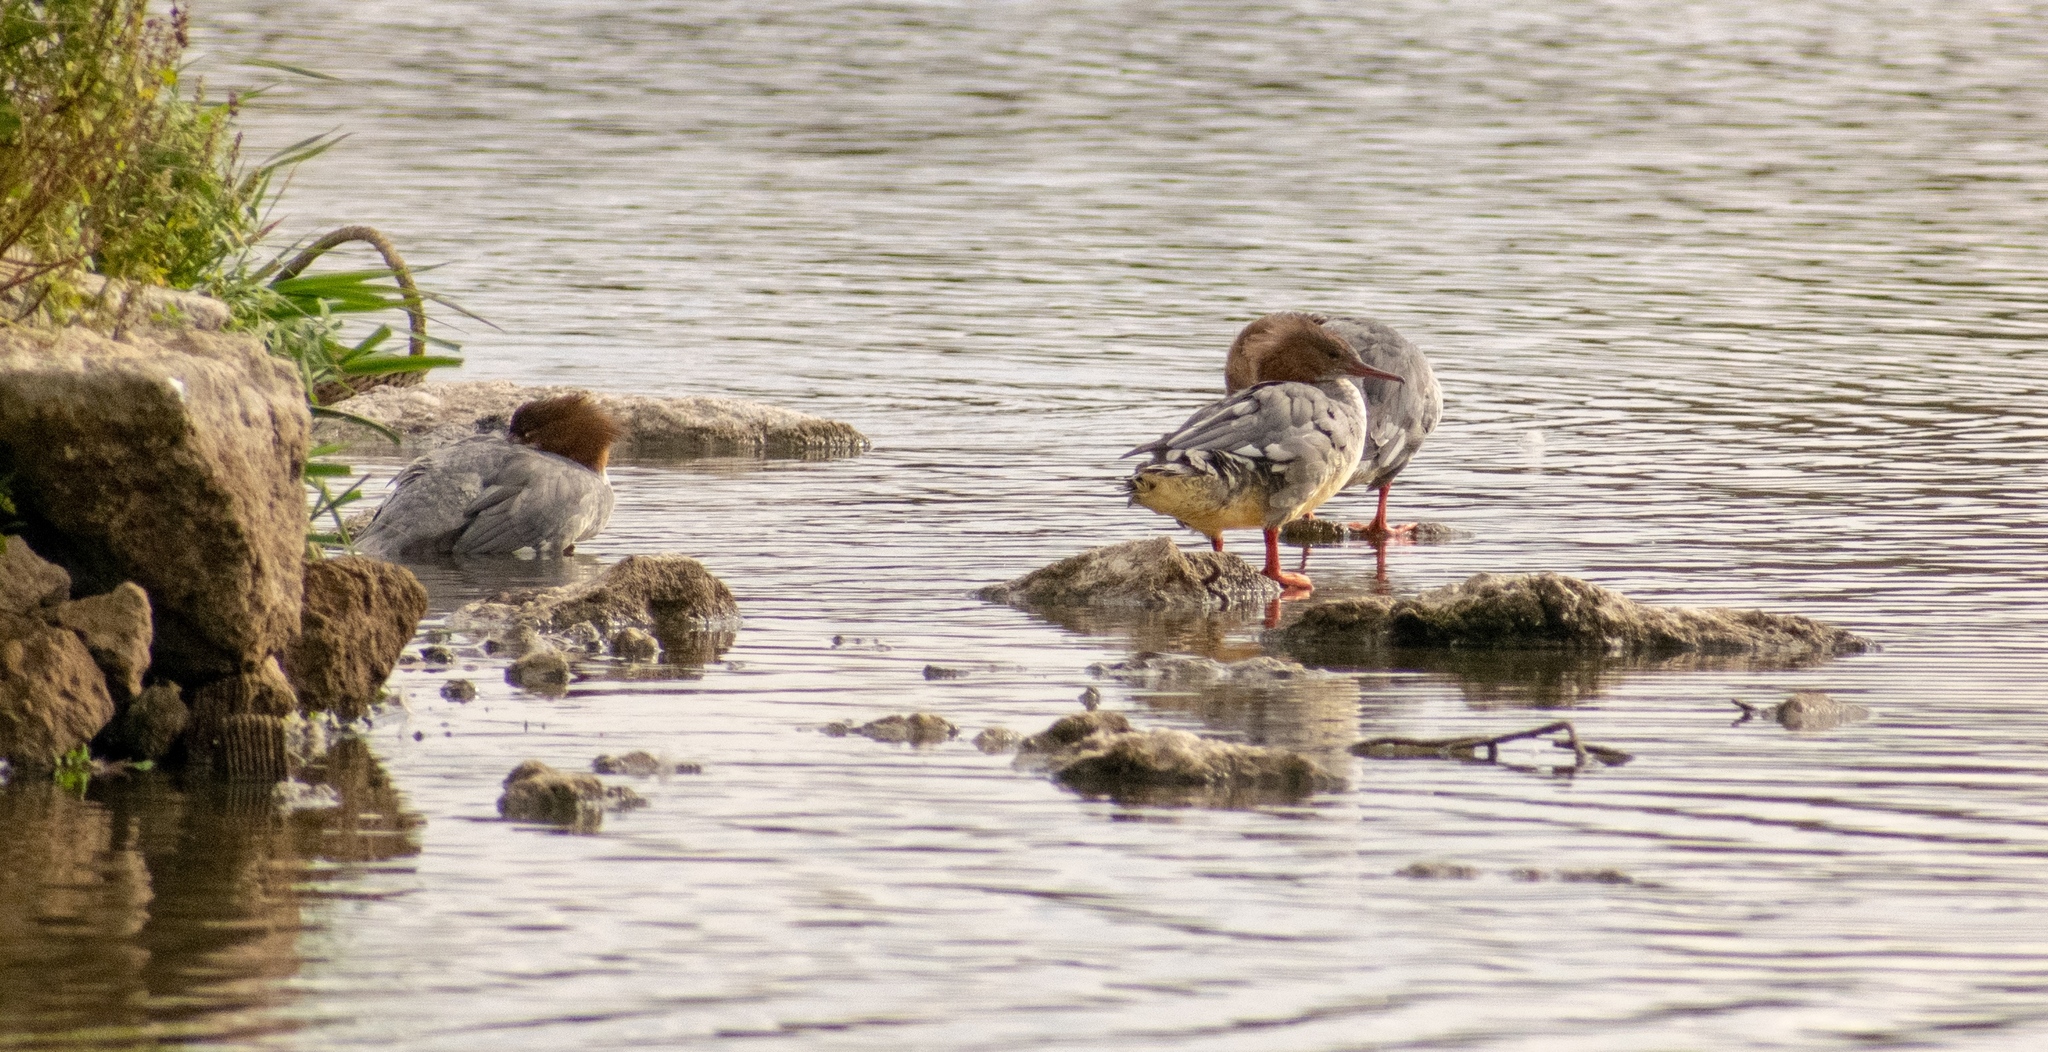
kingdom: Animalia
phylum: Chordata
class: Aves
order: Anseriformes
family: Anatidae
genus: Mergus
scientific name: Mergus merganser
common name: Common merganser
